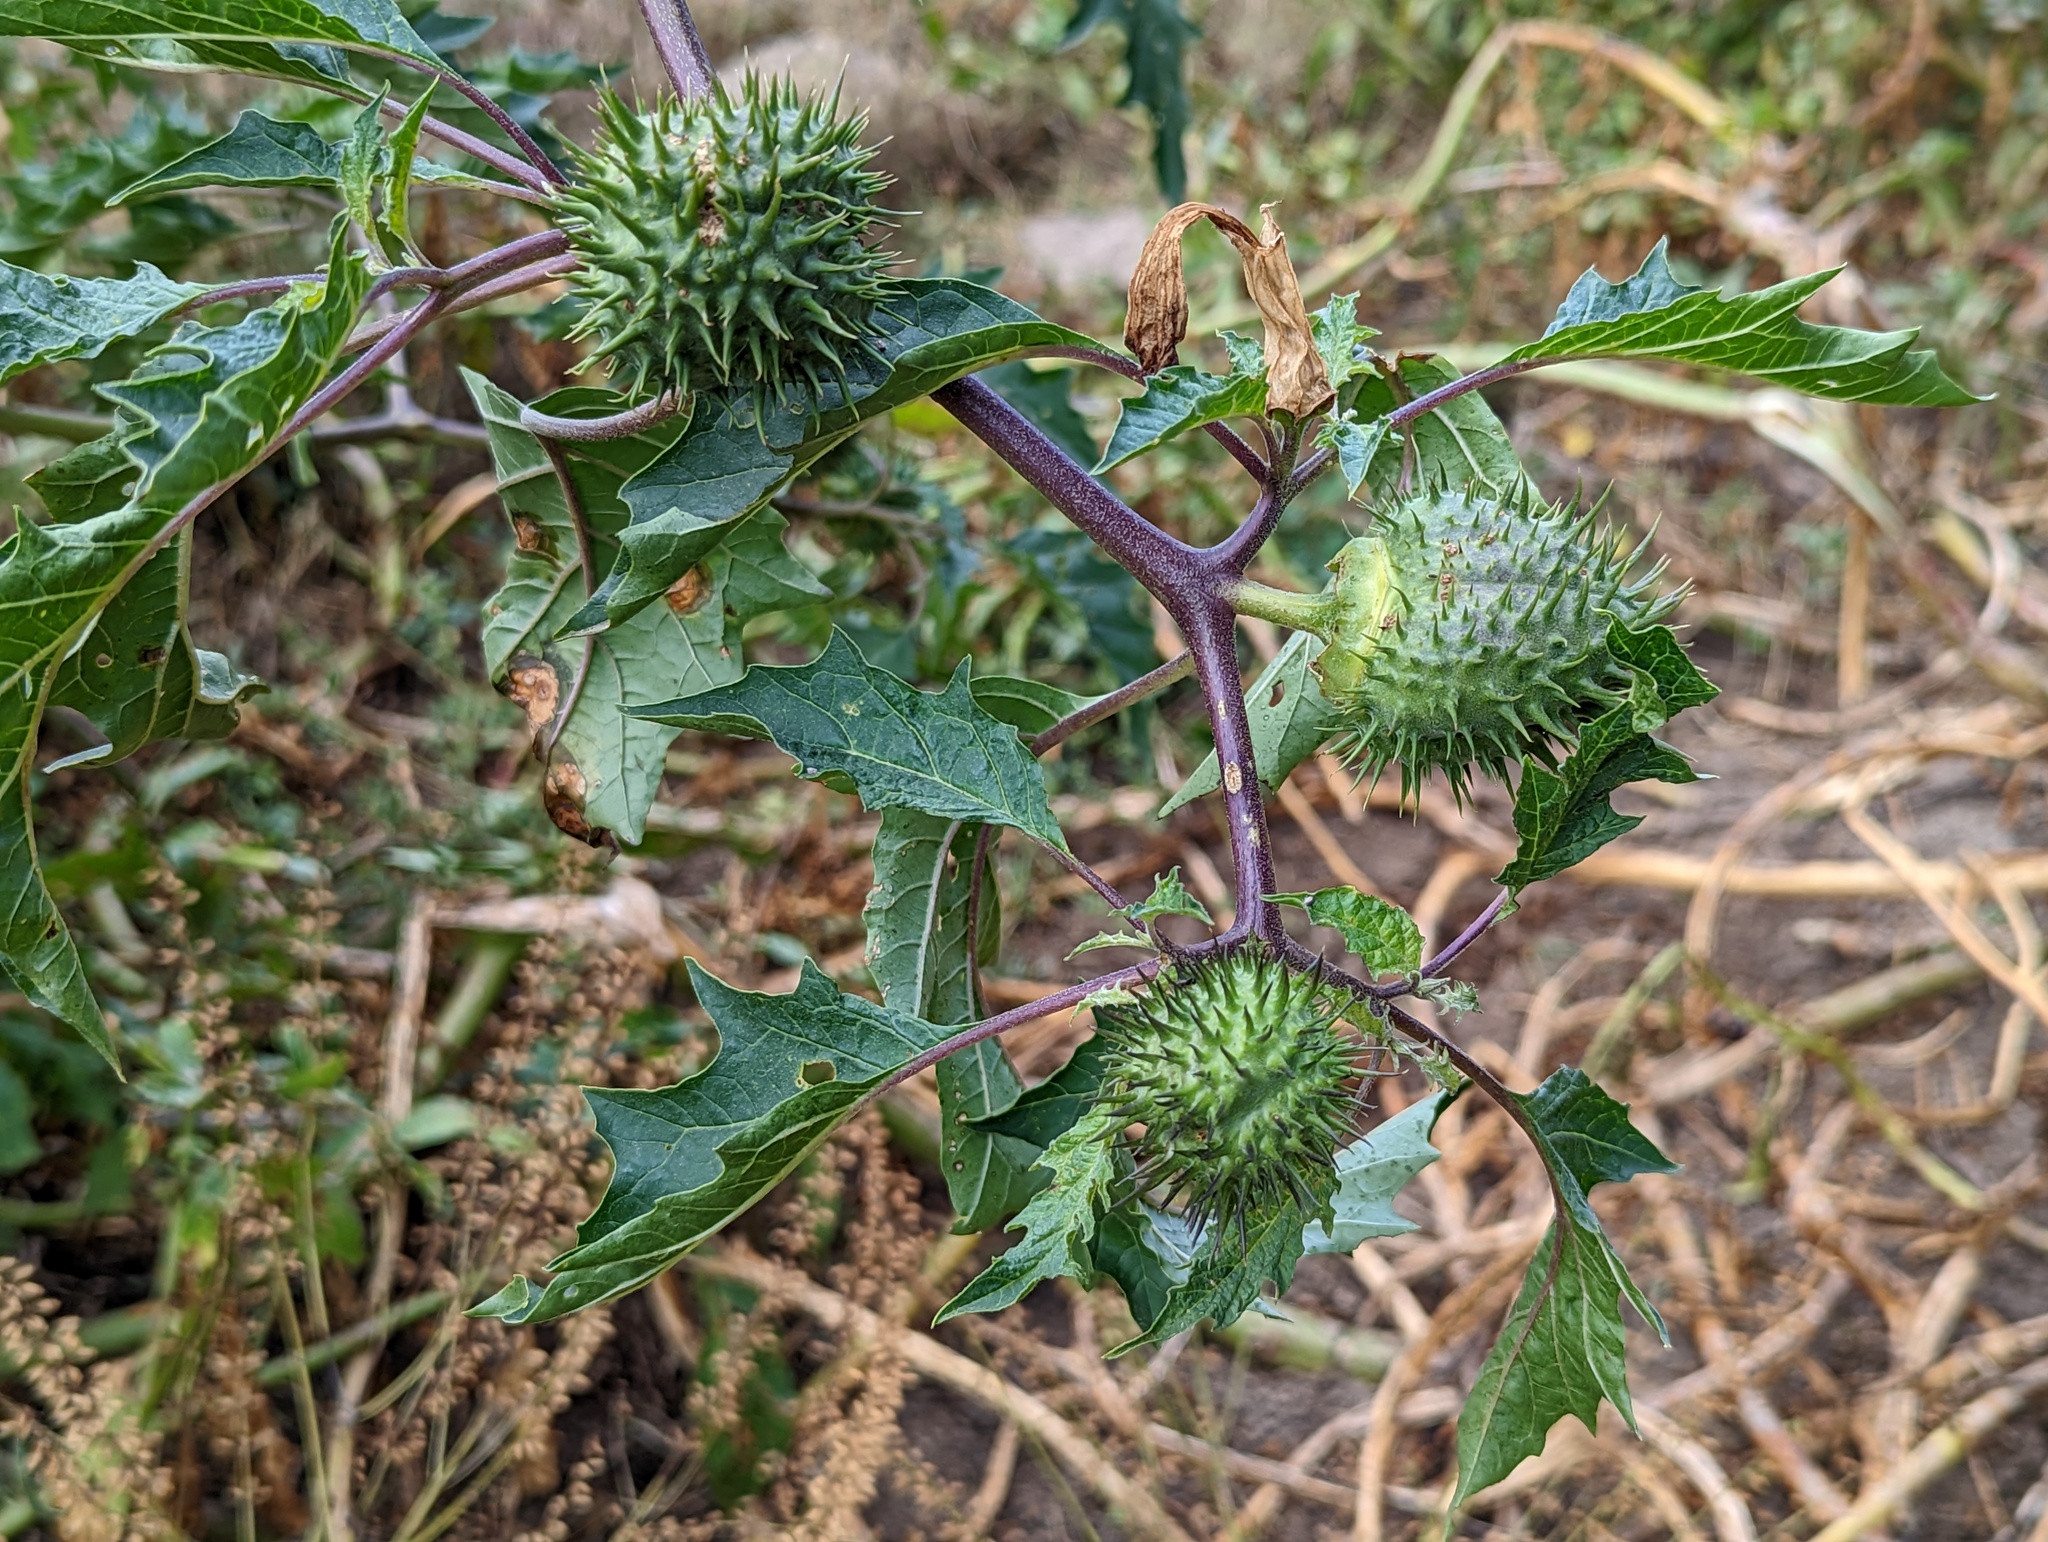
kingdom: Plantae
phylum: Tracheophyta
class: Magnoliopsida
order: Solanales
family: Solanaceae
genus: Datura
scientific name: Datura stramonium
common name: Thorn-apple
